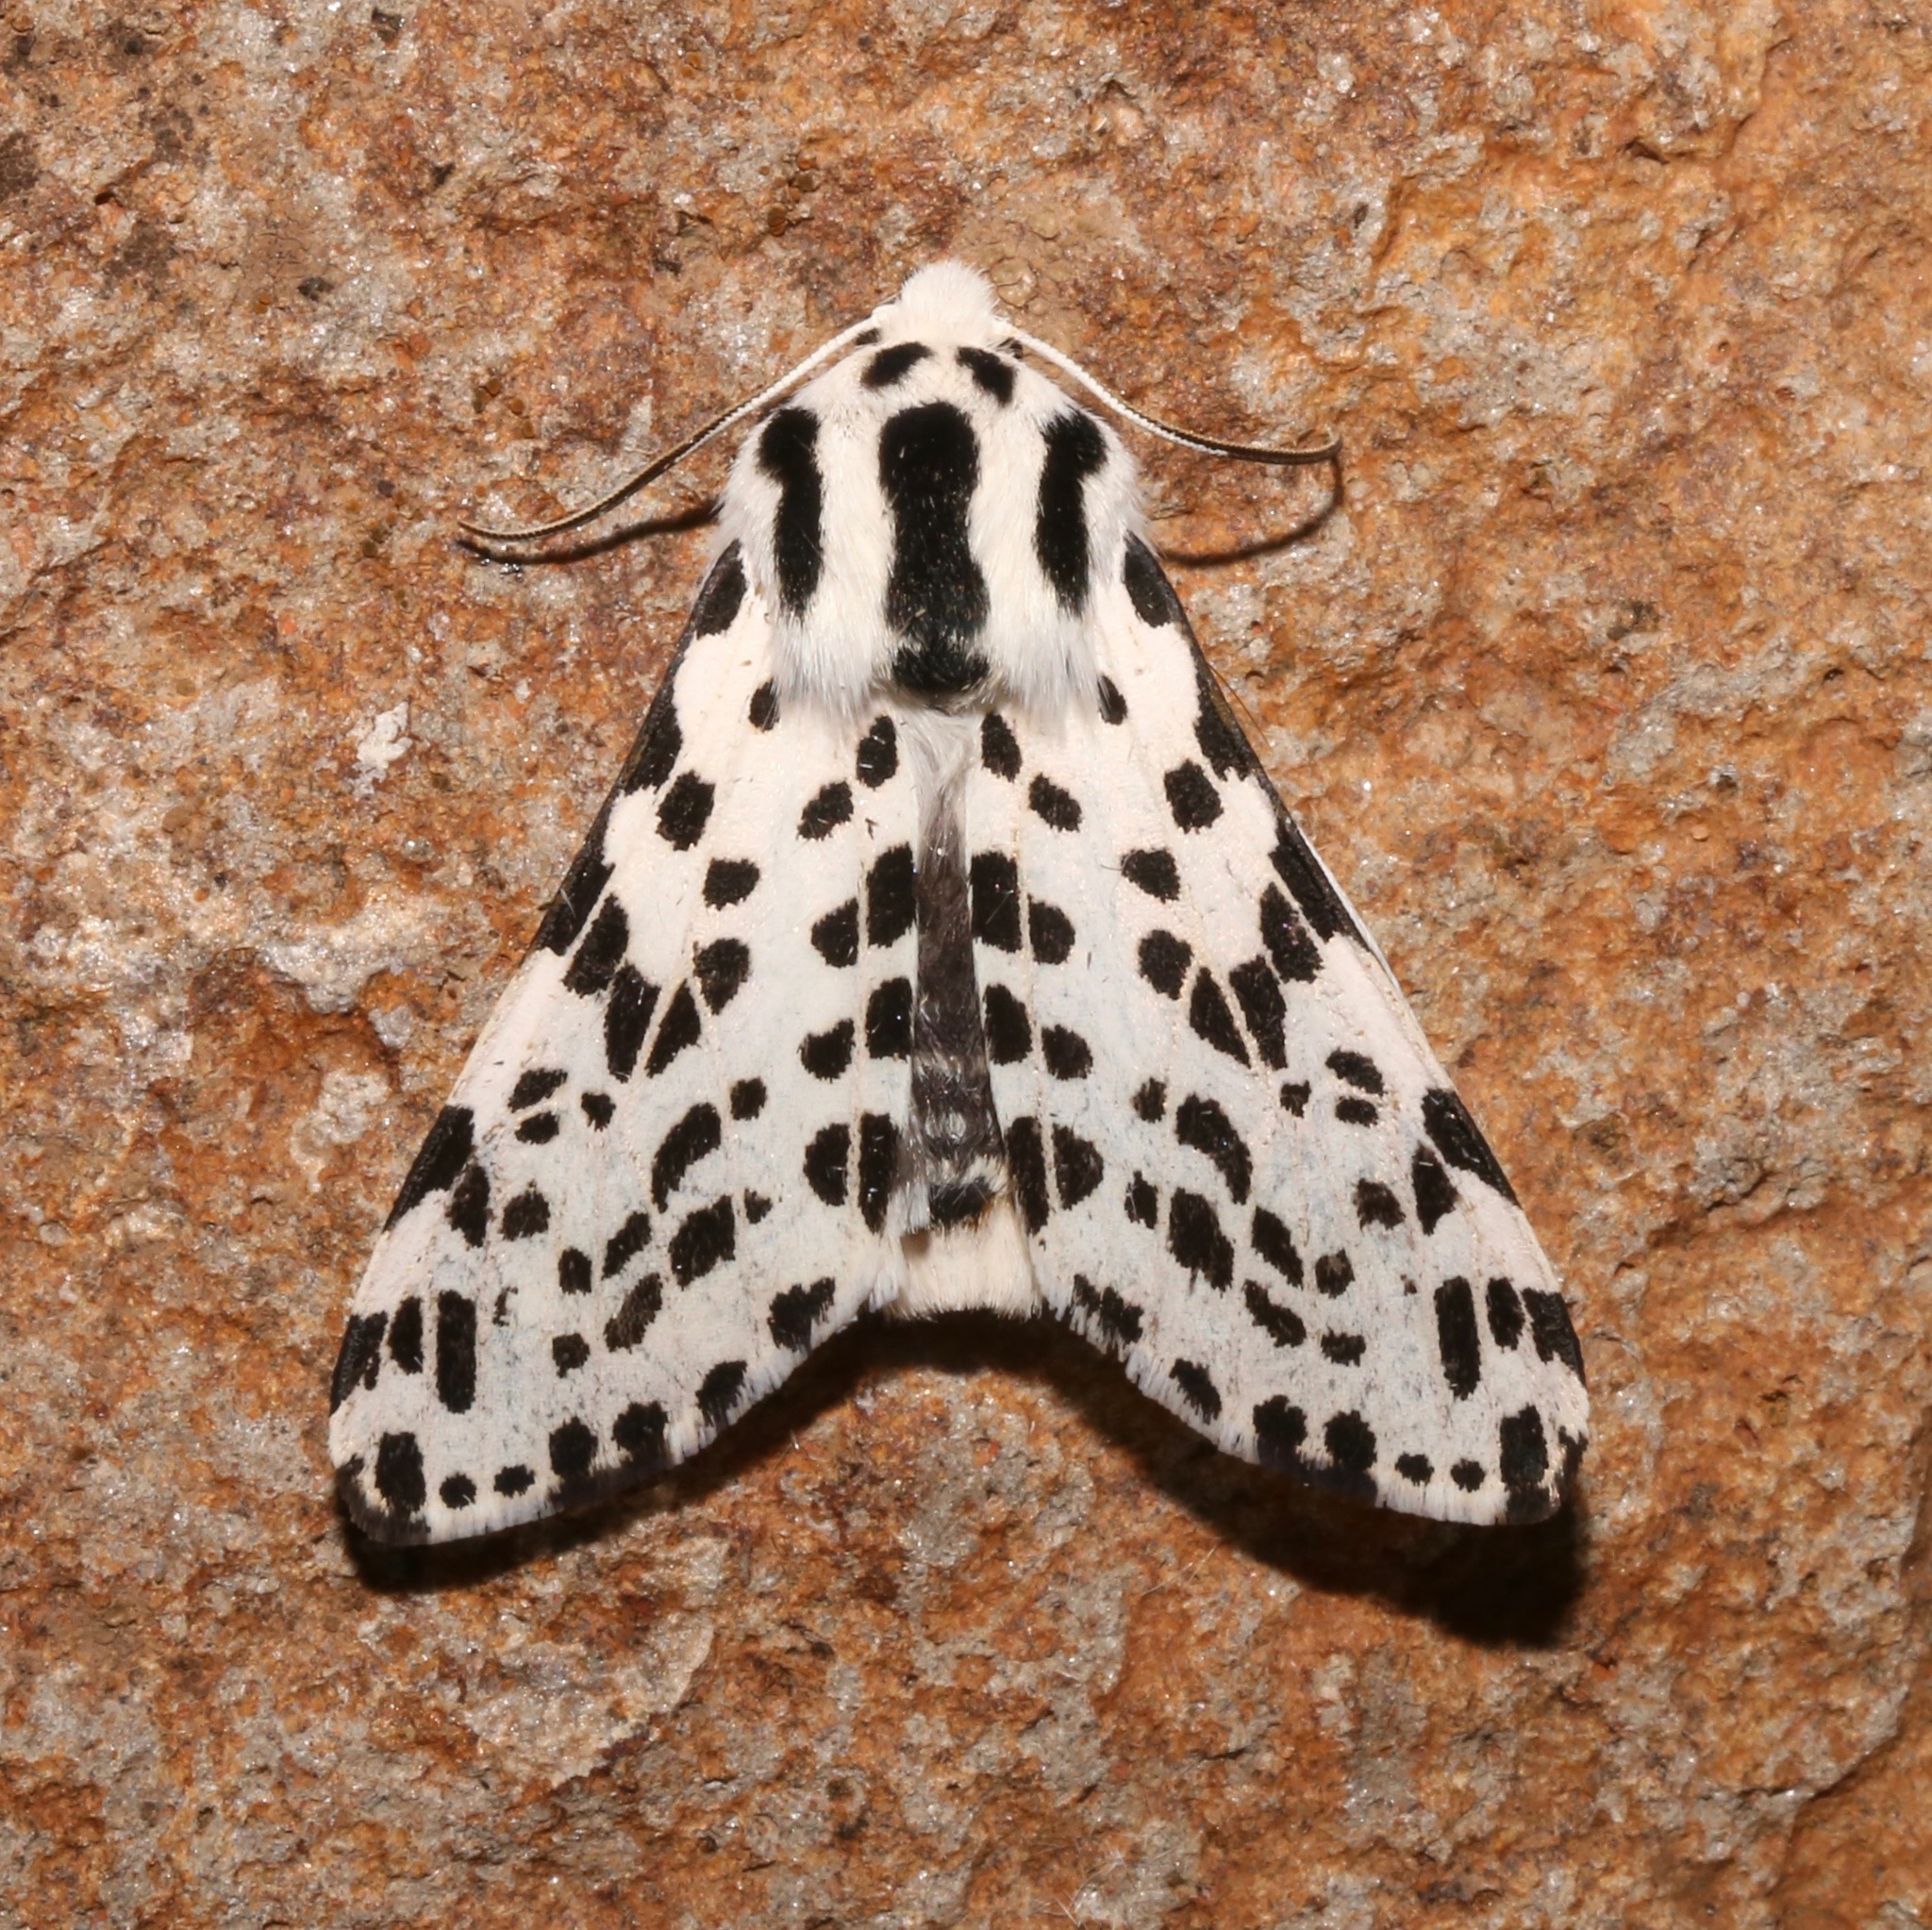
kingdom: Animalia
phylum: Arthropoda
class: Insecta
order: Lepidoptera
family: Erebidae
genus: Hypercompe
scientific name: Hypercompe permaculata
